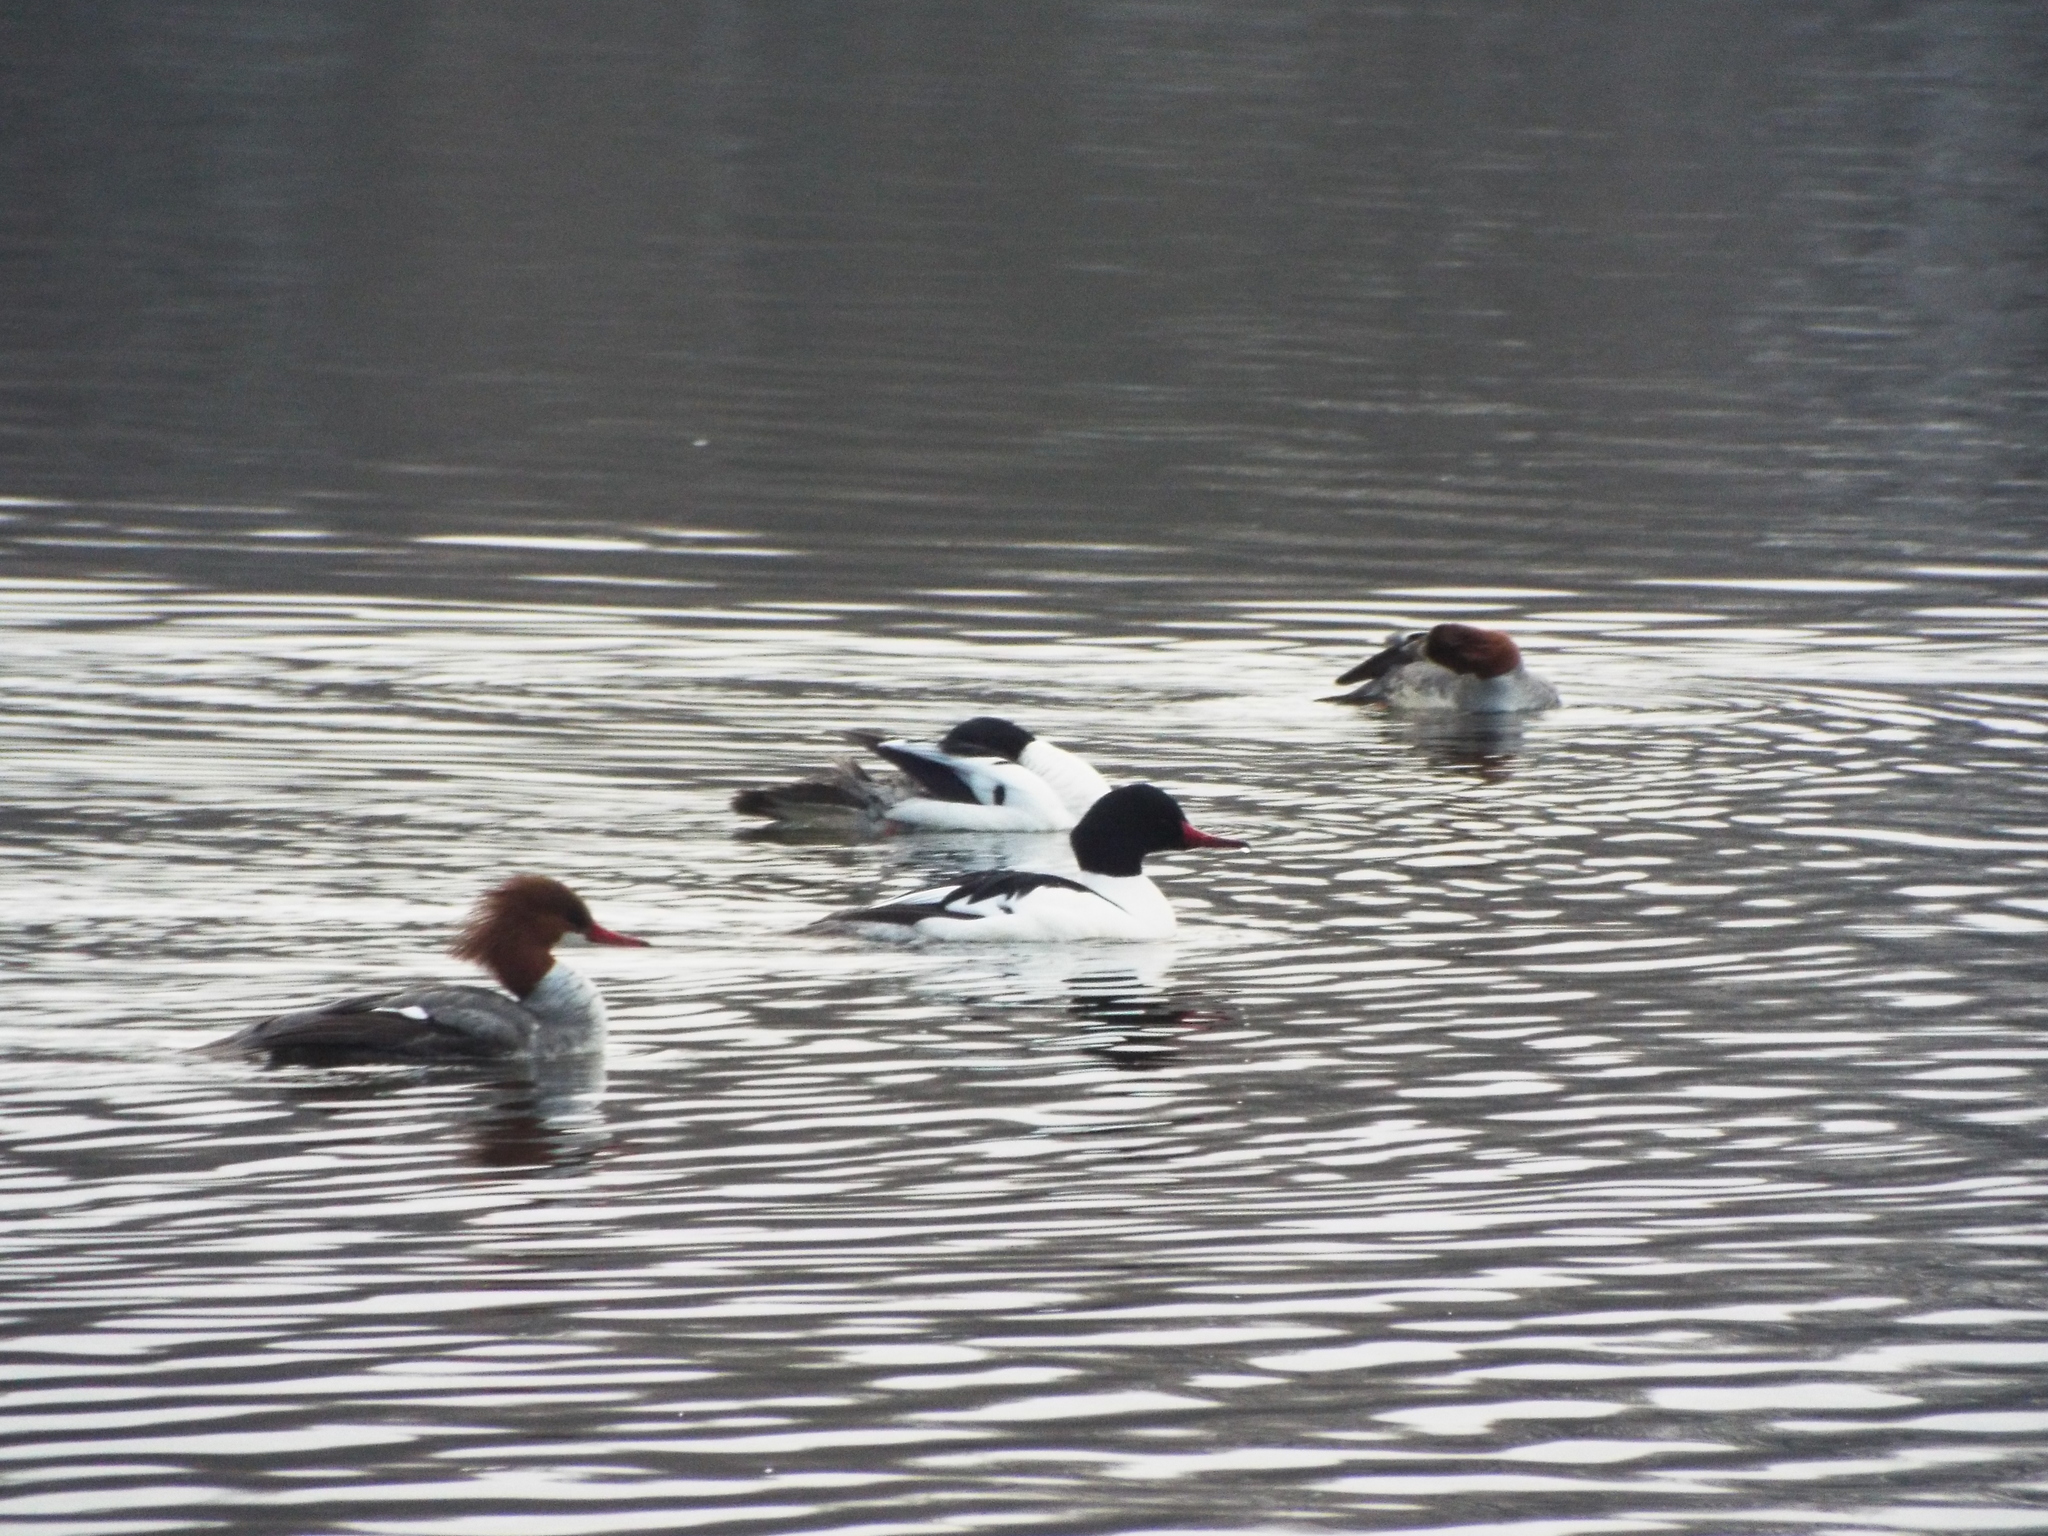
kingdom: Animalia
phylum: Chordata
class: Aves
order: Anseriformes
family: Anatidae
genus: Mergus
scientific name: Mergus merganser
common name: Common merganser
